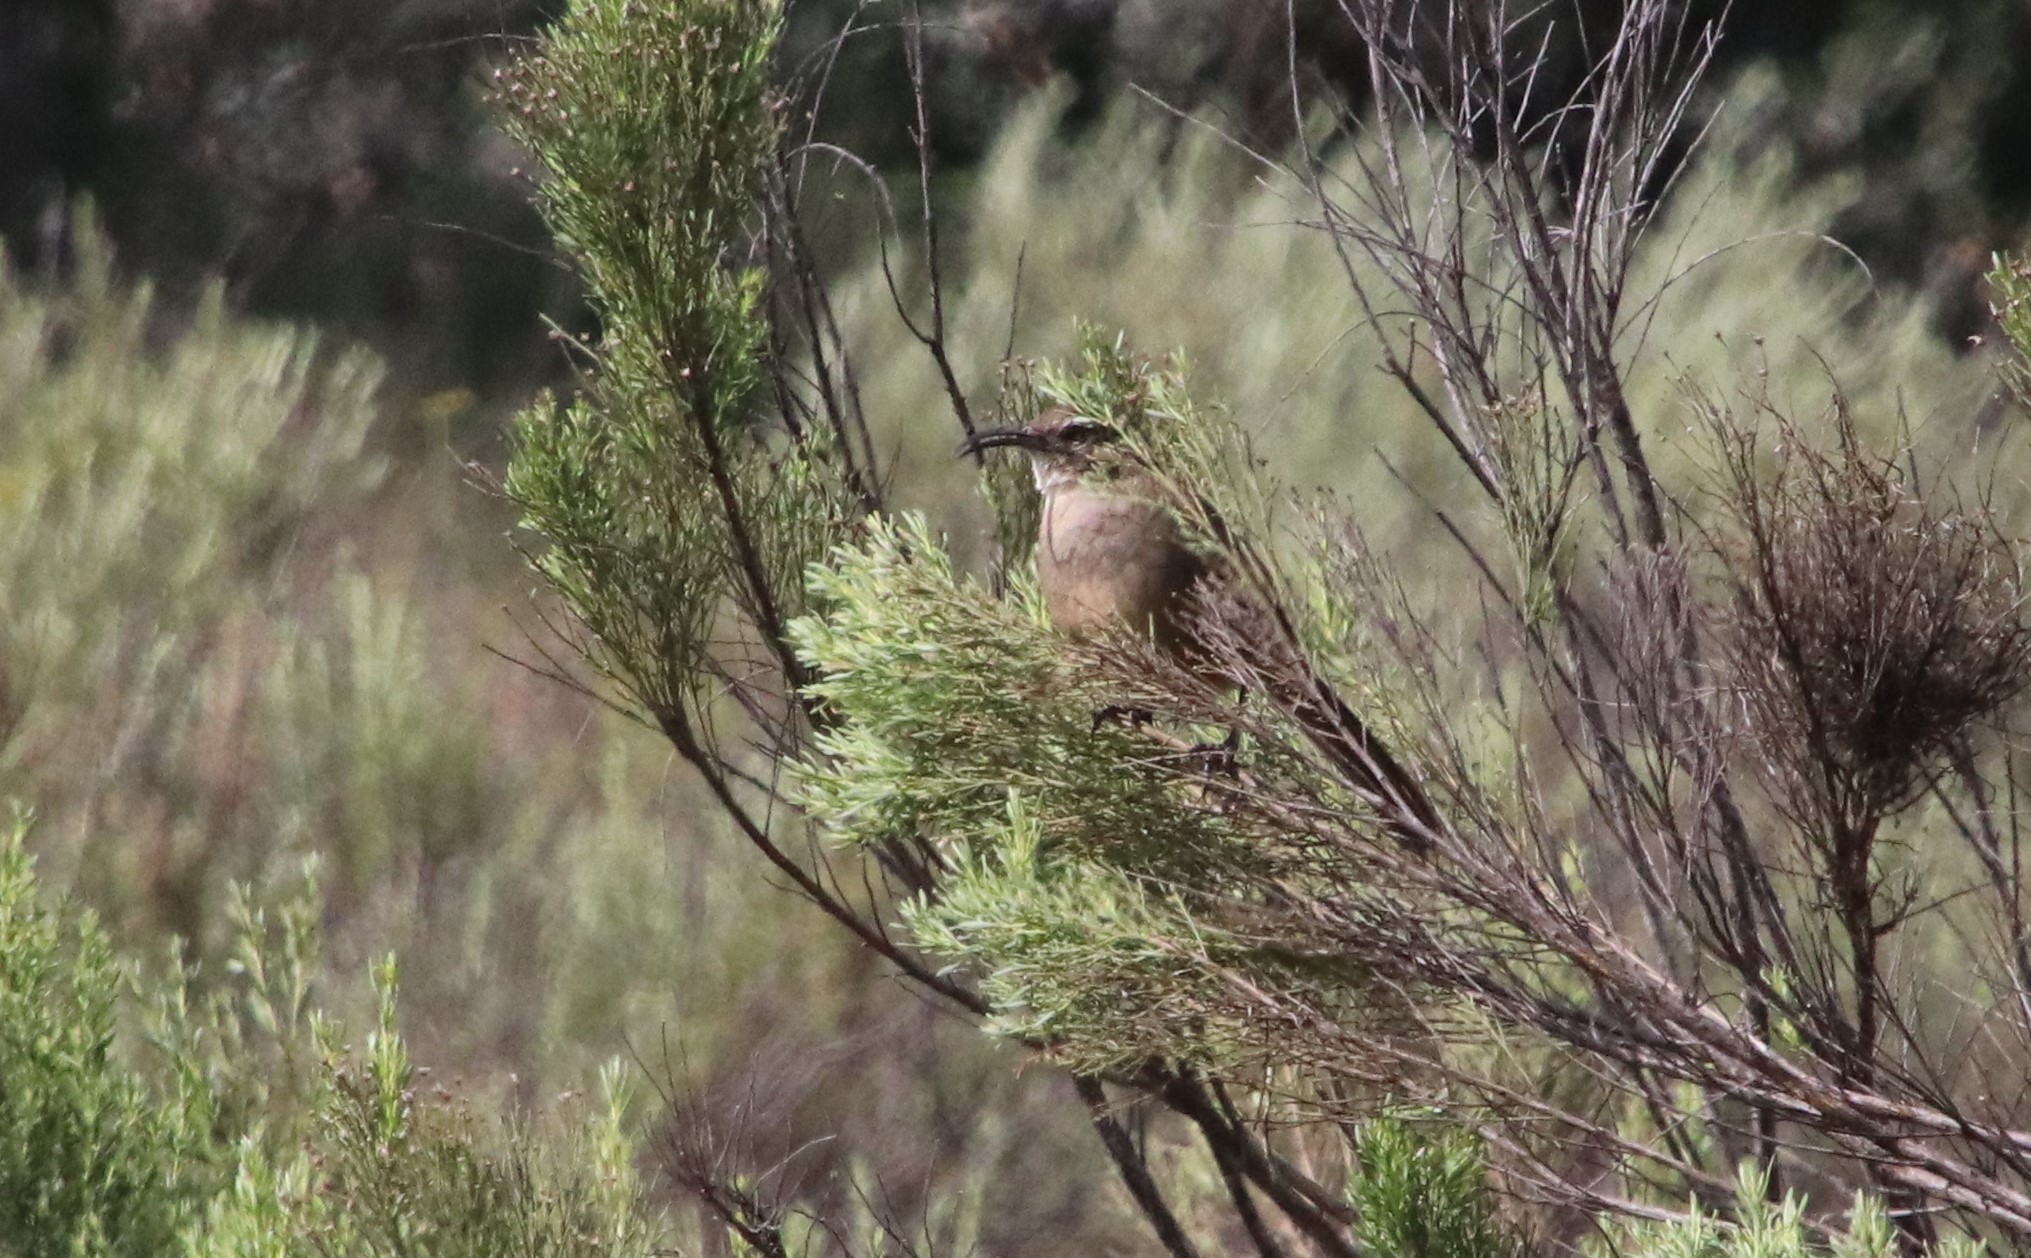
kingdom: Animalia
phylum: Chordata
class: Aves
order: Passeriformes
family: Mimidae
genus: Toxostoma
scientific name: Toxostoma redivivum
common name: California thrasher
